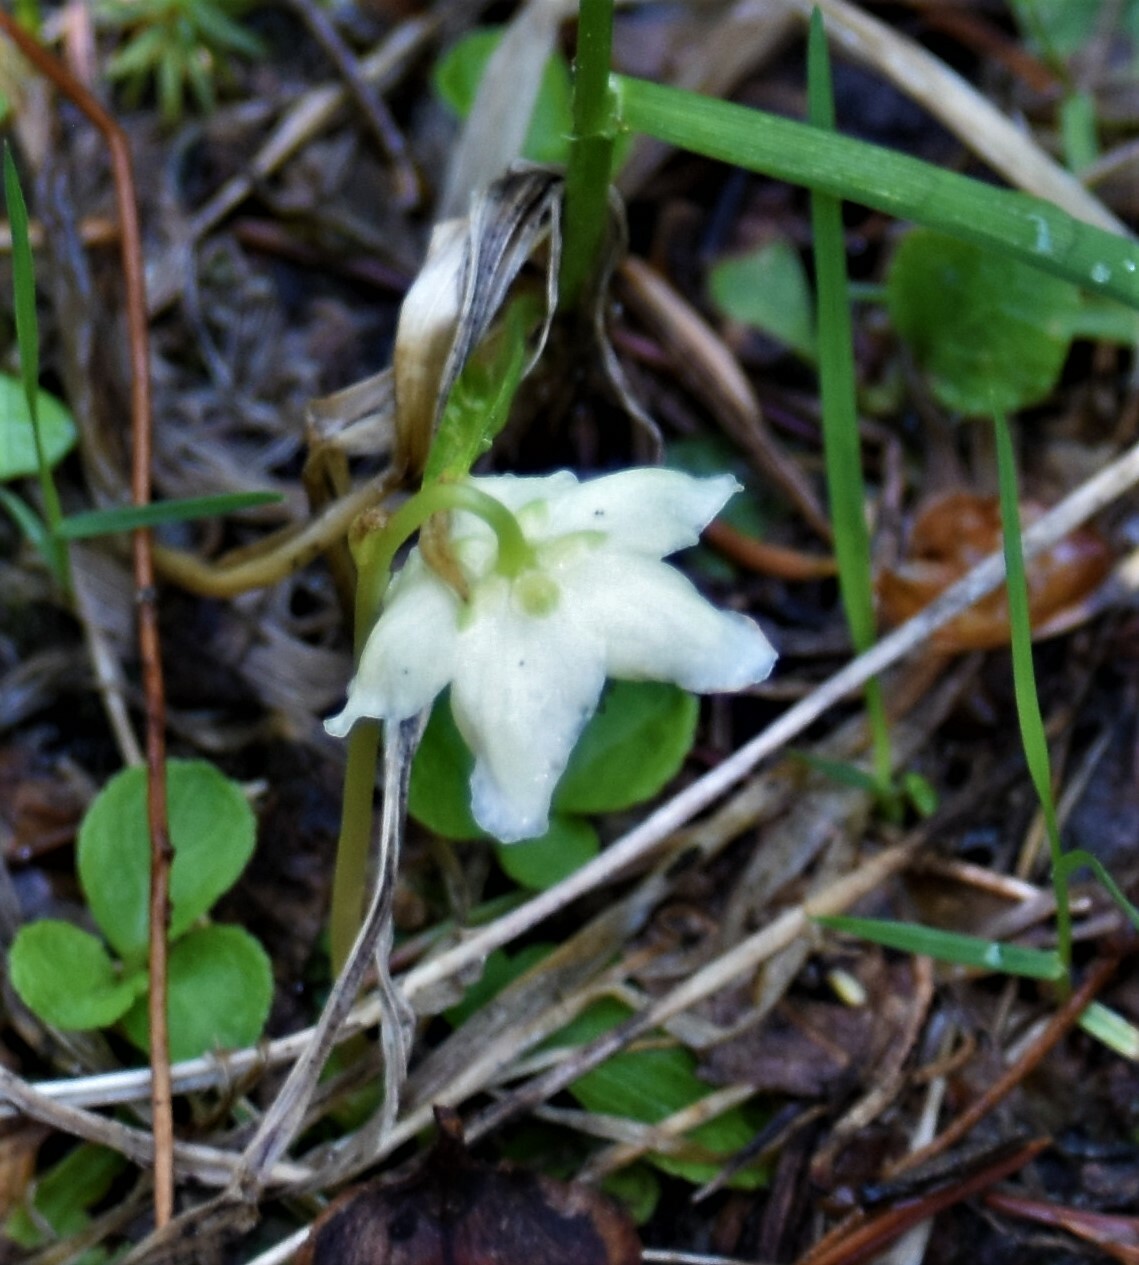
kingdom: Plantae
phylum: Tracheophyta
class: Magnoliopsida
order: Ericales
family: Ericaceae
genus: Moneses
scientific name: Moneses uniflora
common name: One-flowered wintergreen
